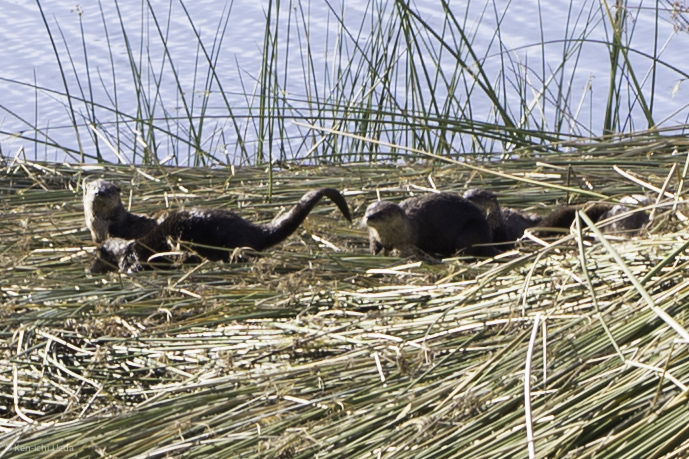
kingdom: Animalia
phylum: Chordata
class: Mammalia
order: Carnivora
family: Mustelidae
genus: Lontra
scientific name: Lontra canadensis
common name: North american river otter
